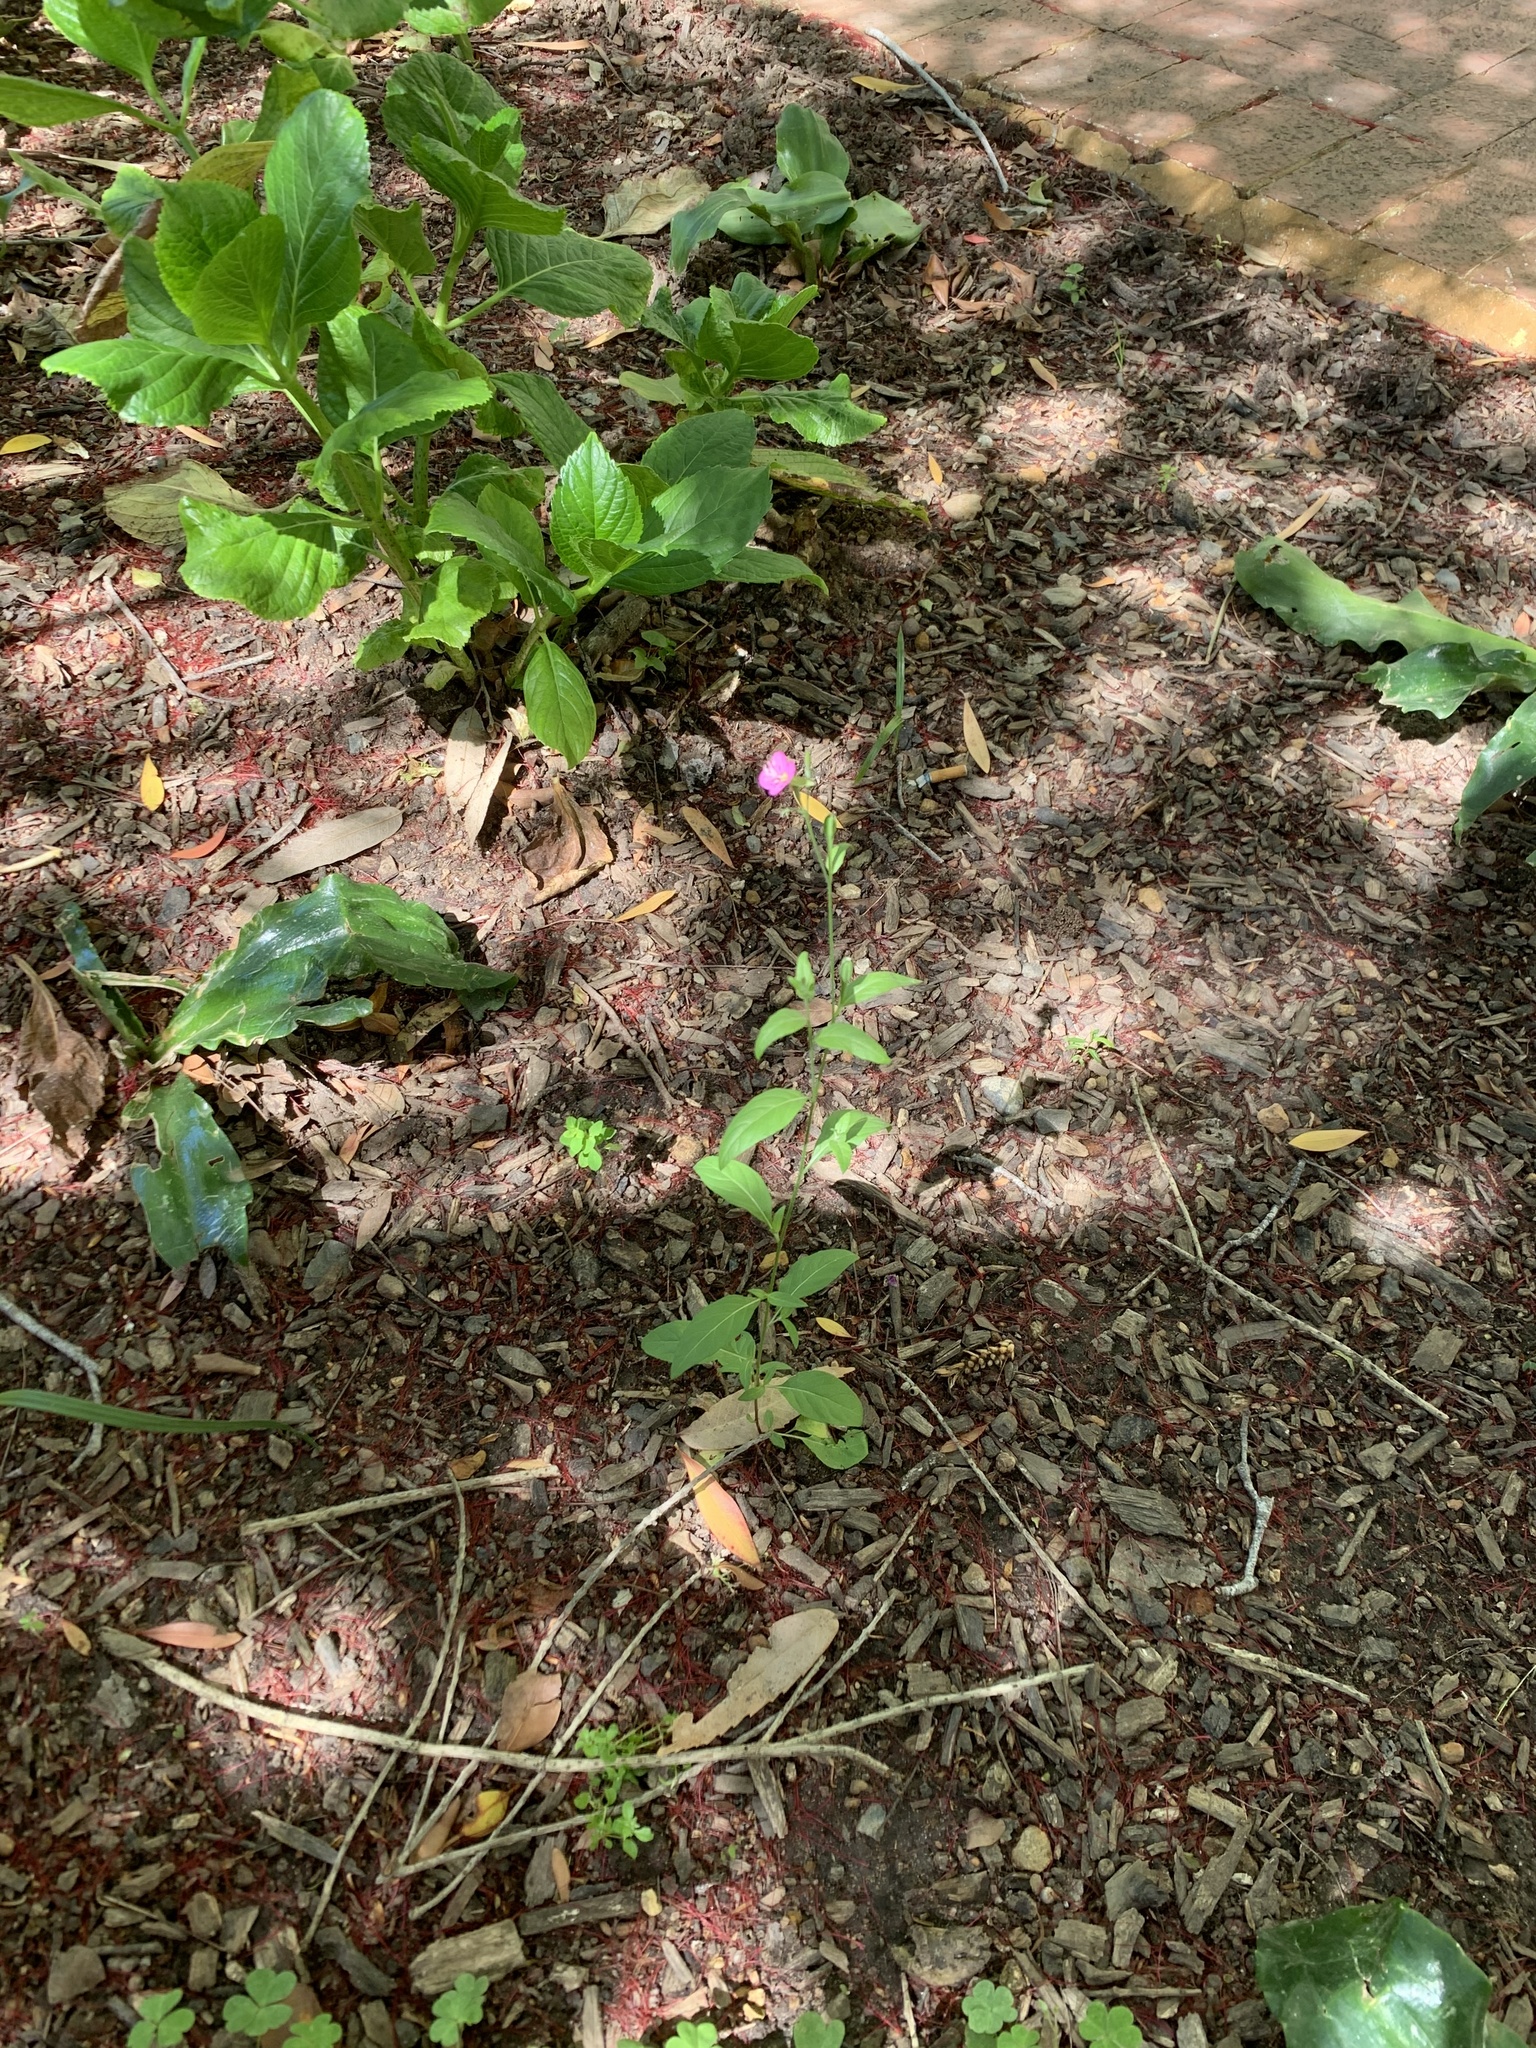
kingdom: Plantae
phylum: Tracheophyta
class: Magnoliopsida
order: Myrtales
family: Onagraceae
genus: Oenothera
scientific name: Oenothera rosea
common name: Rosy evening-primrose
